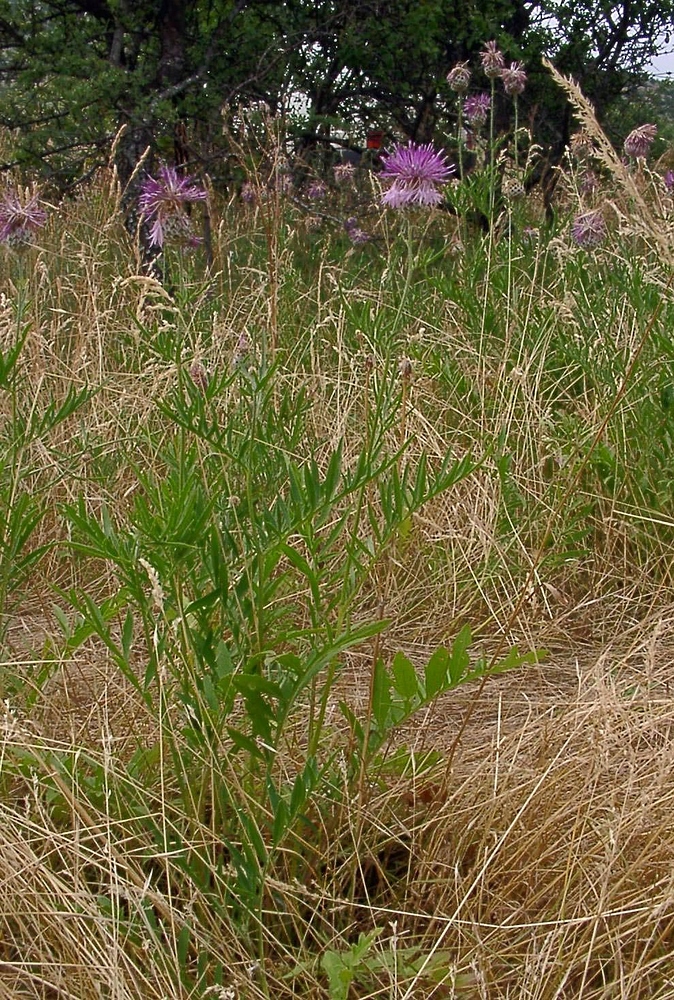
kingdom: Plantae
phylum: Tracheophyta
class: Magnoliopsida
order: Asterales
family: Asteraceae
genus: Centaurea
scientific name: Centaurea scabiosa
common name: Greater knapweed
